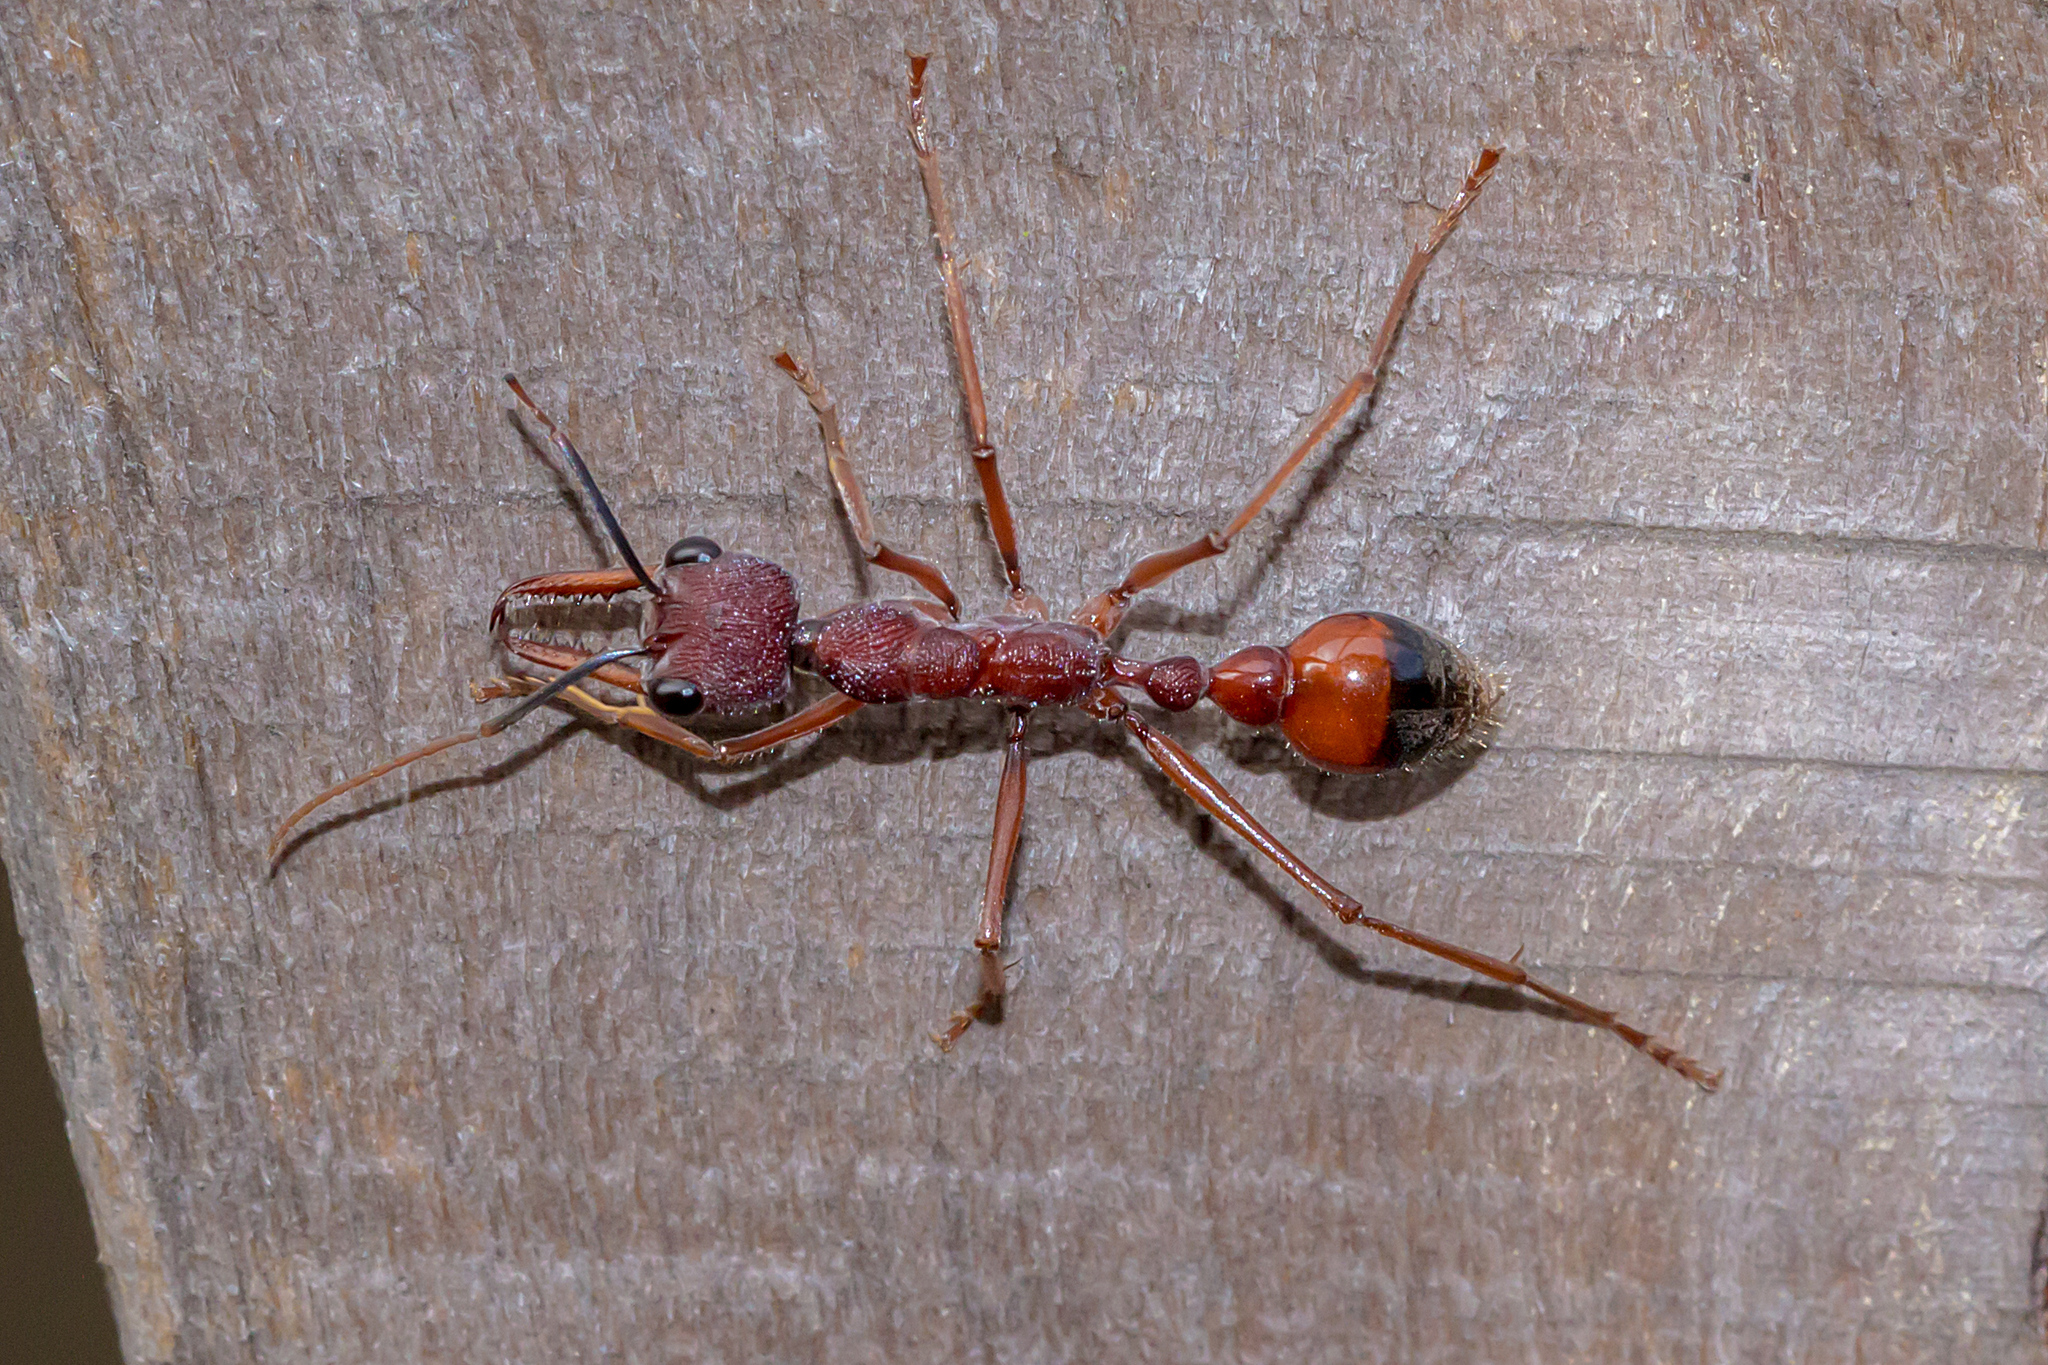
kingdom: Animalia
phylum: Arthropoda
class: Insecta
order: Hymenoptera
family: Formicidae
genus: Myrmecia
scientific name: Myrmecia nigriscapa
